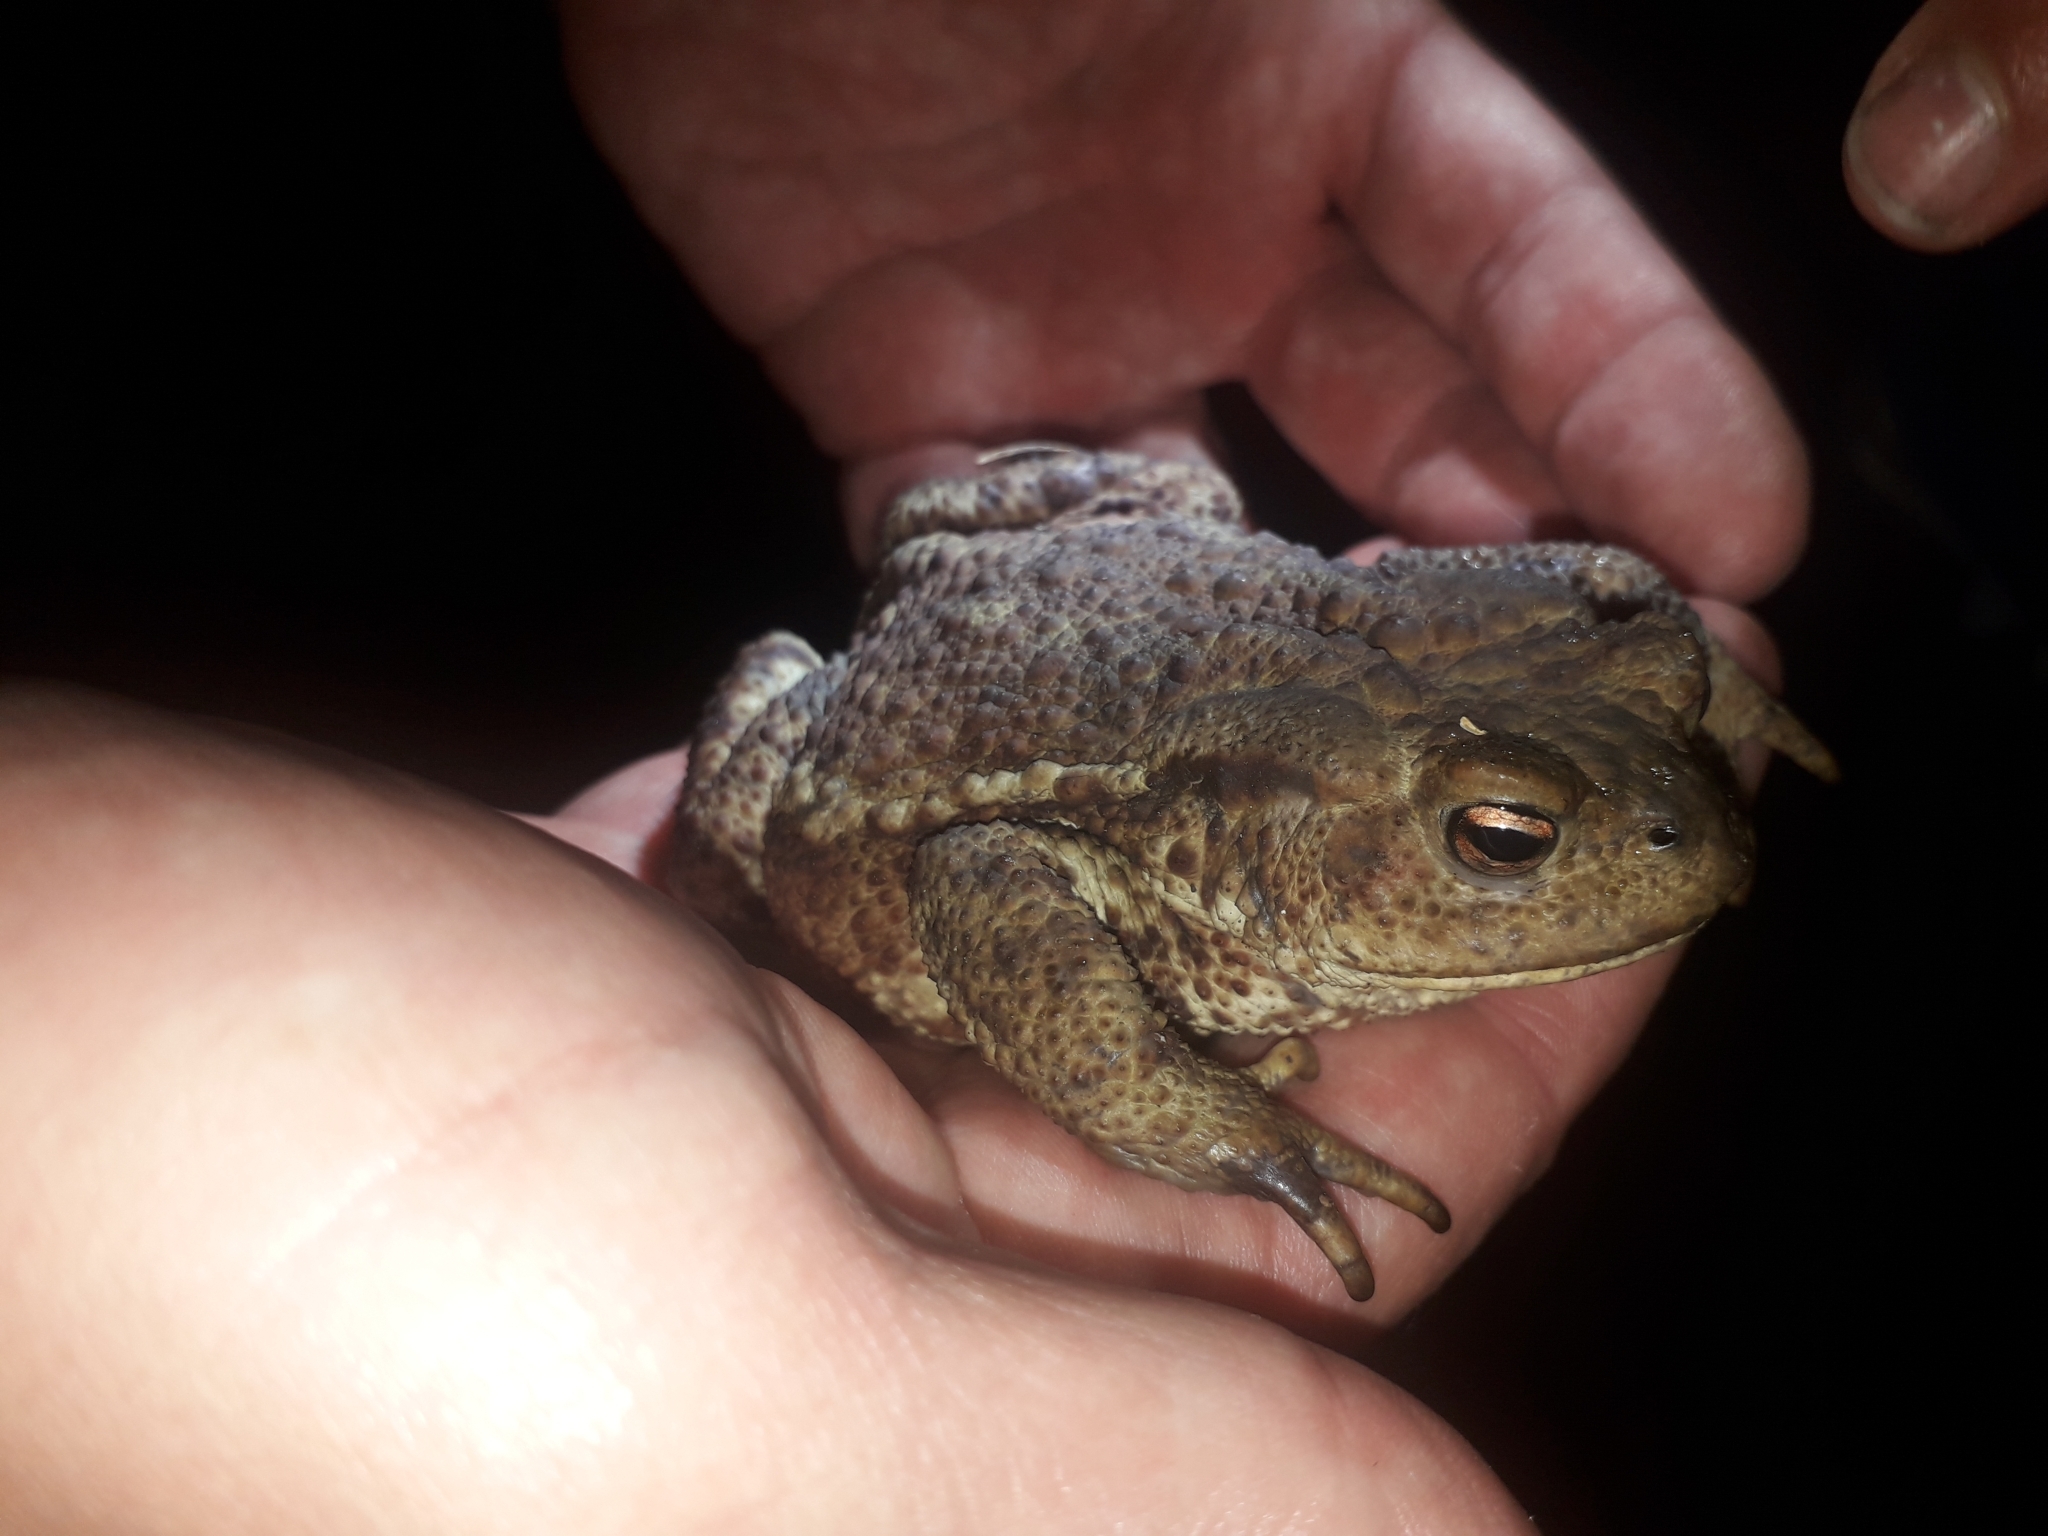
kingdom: Animalia
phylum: Chordata
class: Amphibia
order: Anura
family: Bufonidae
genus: Bufo
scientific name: Bufo bufo
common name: Common toad
